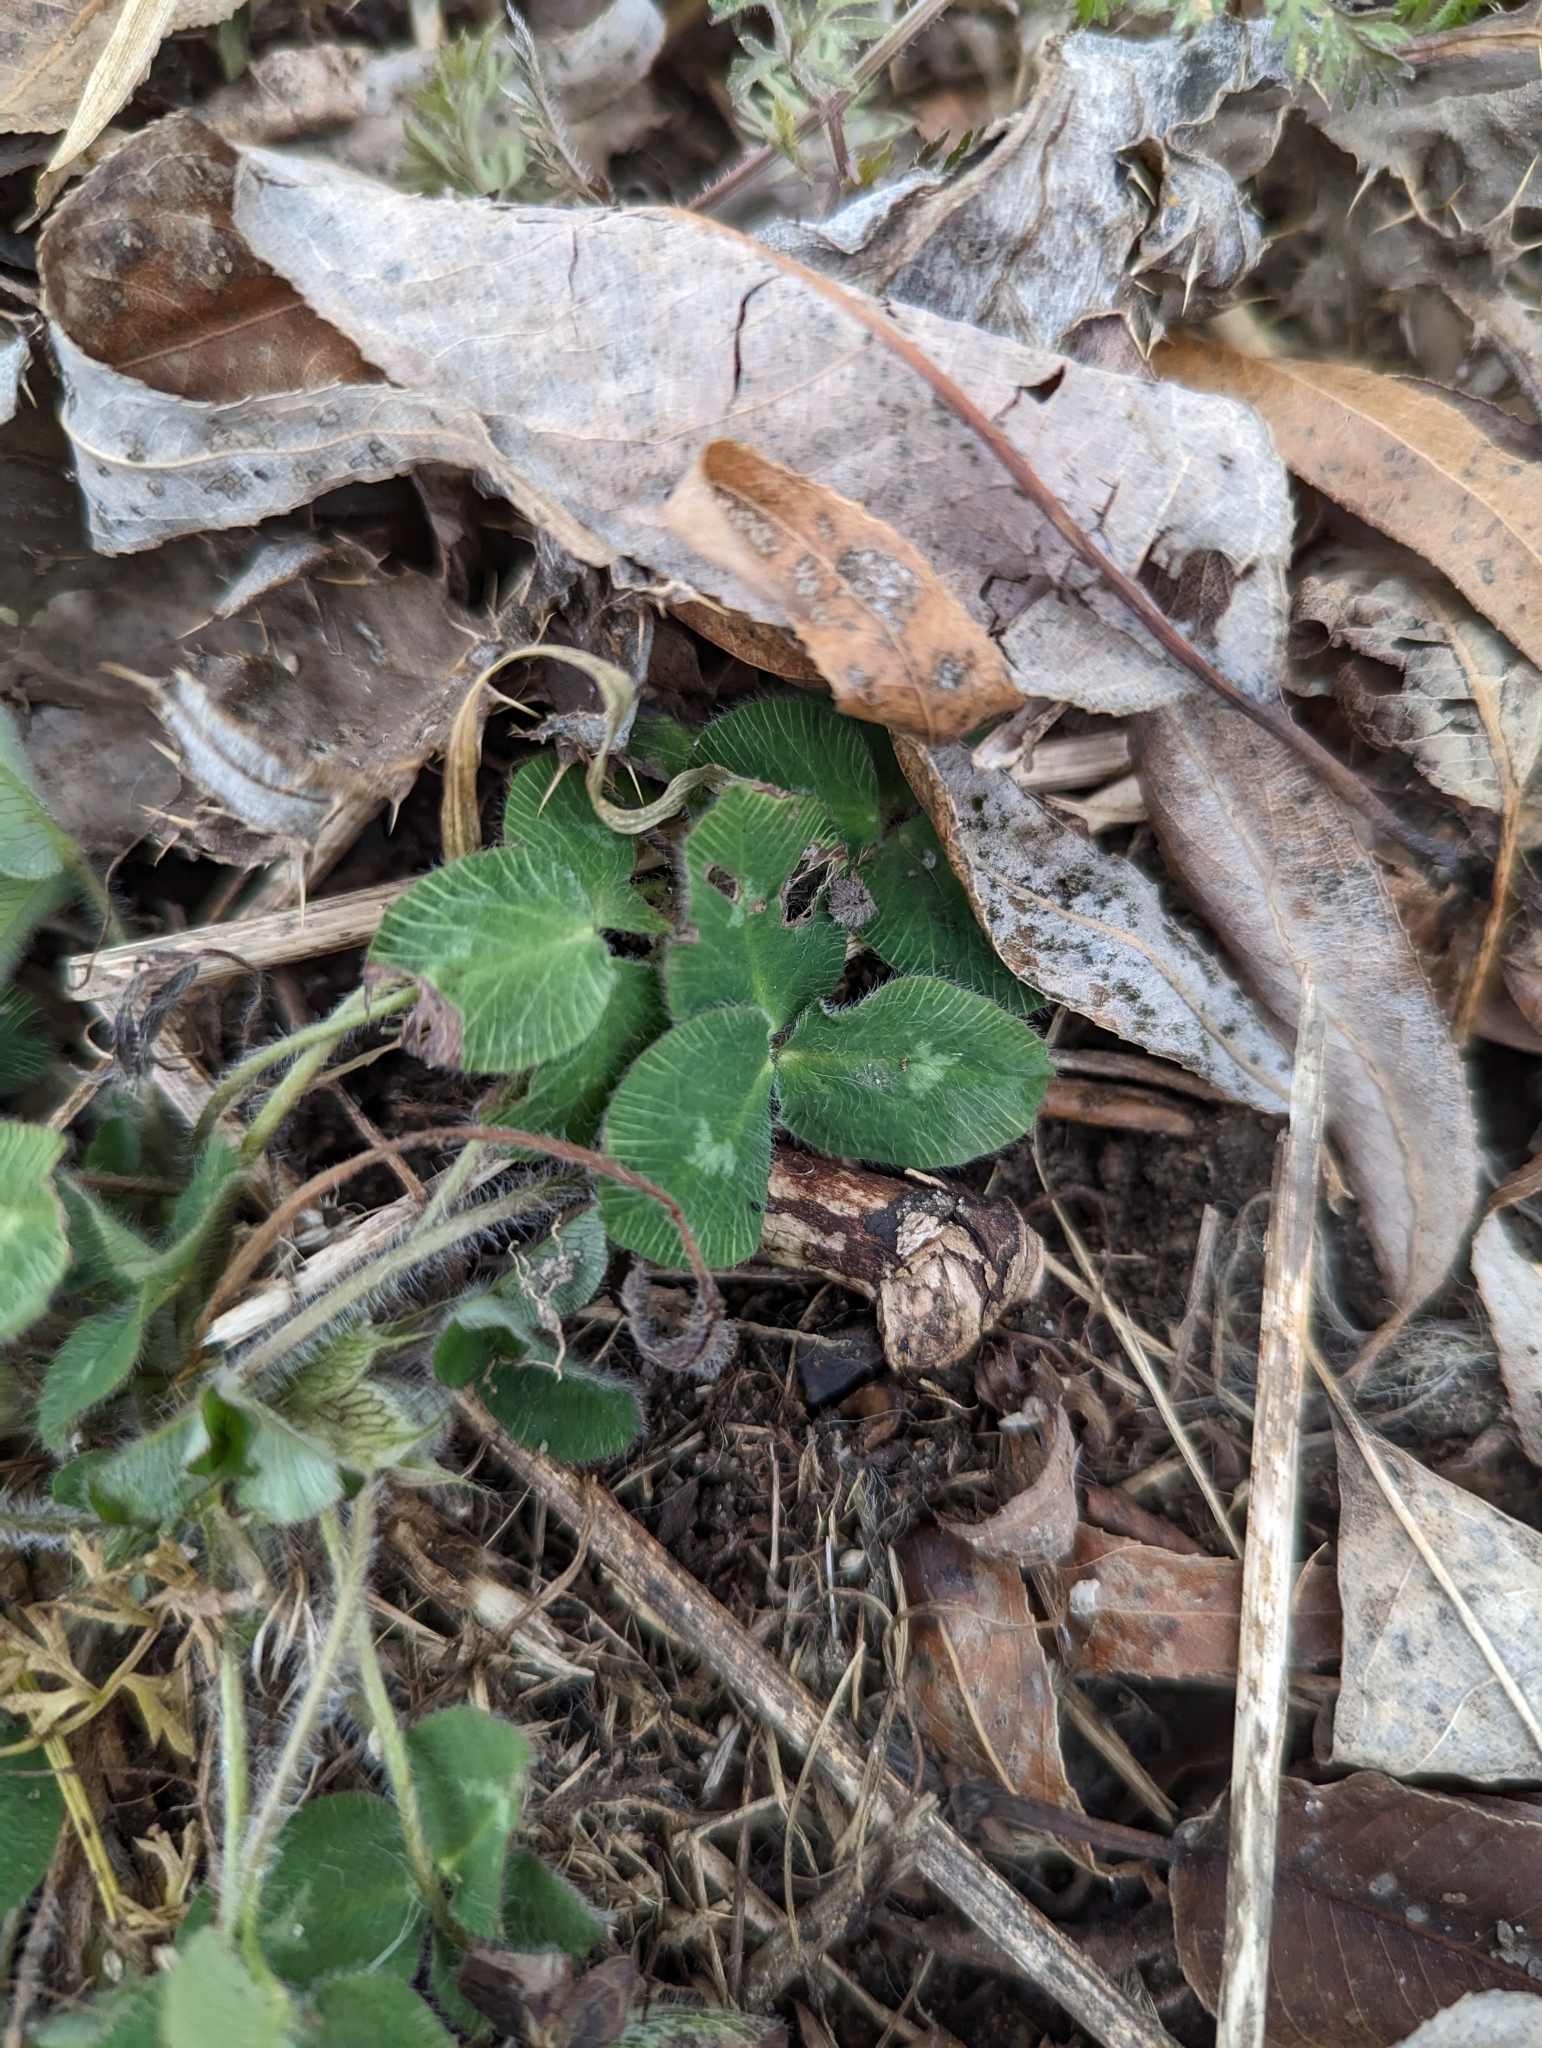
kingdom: Plantae
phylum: Tracheophyta
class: Magnoliopsida
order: Fabales
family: Fabaceae
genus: Trifolium
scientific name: Trifolium pratense
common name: Red clover
